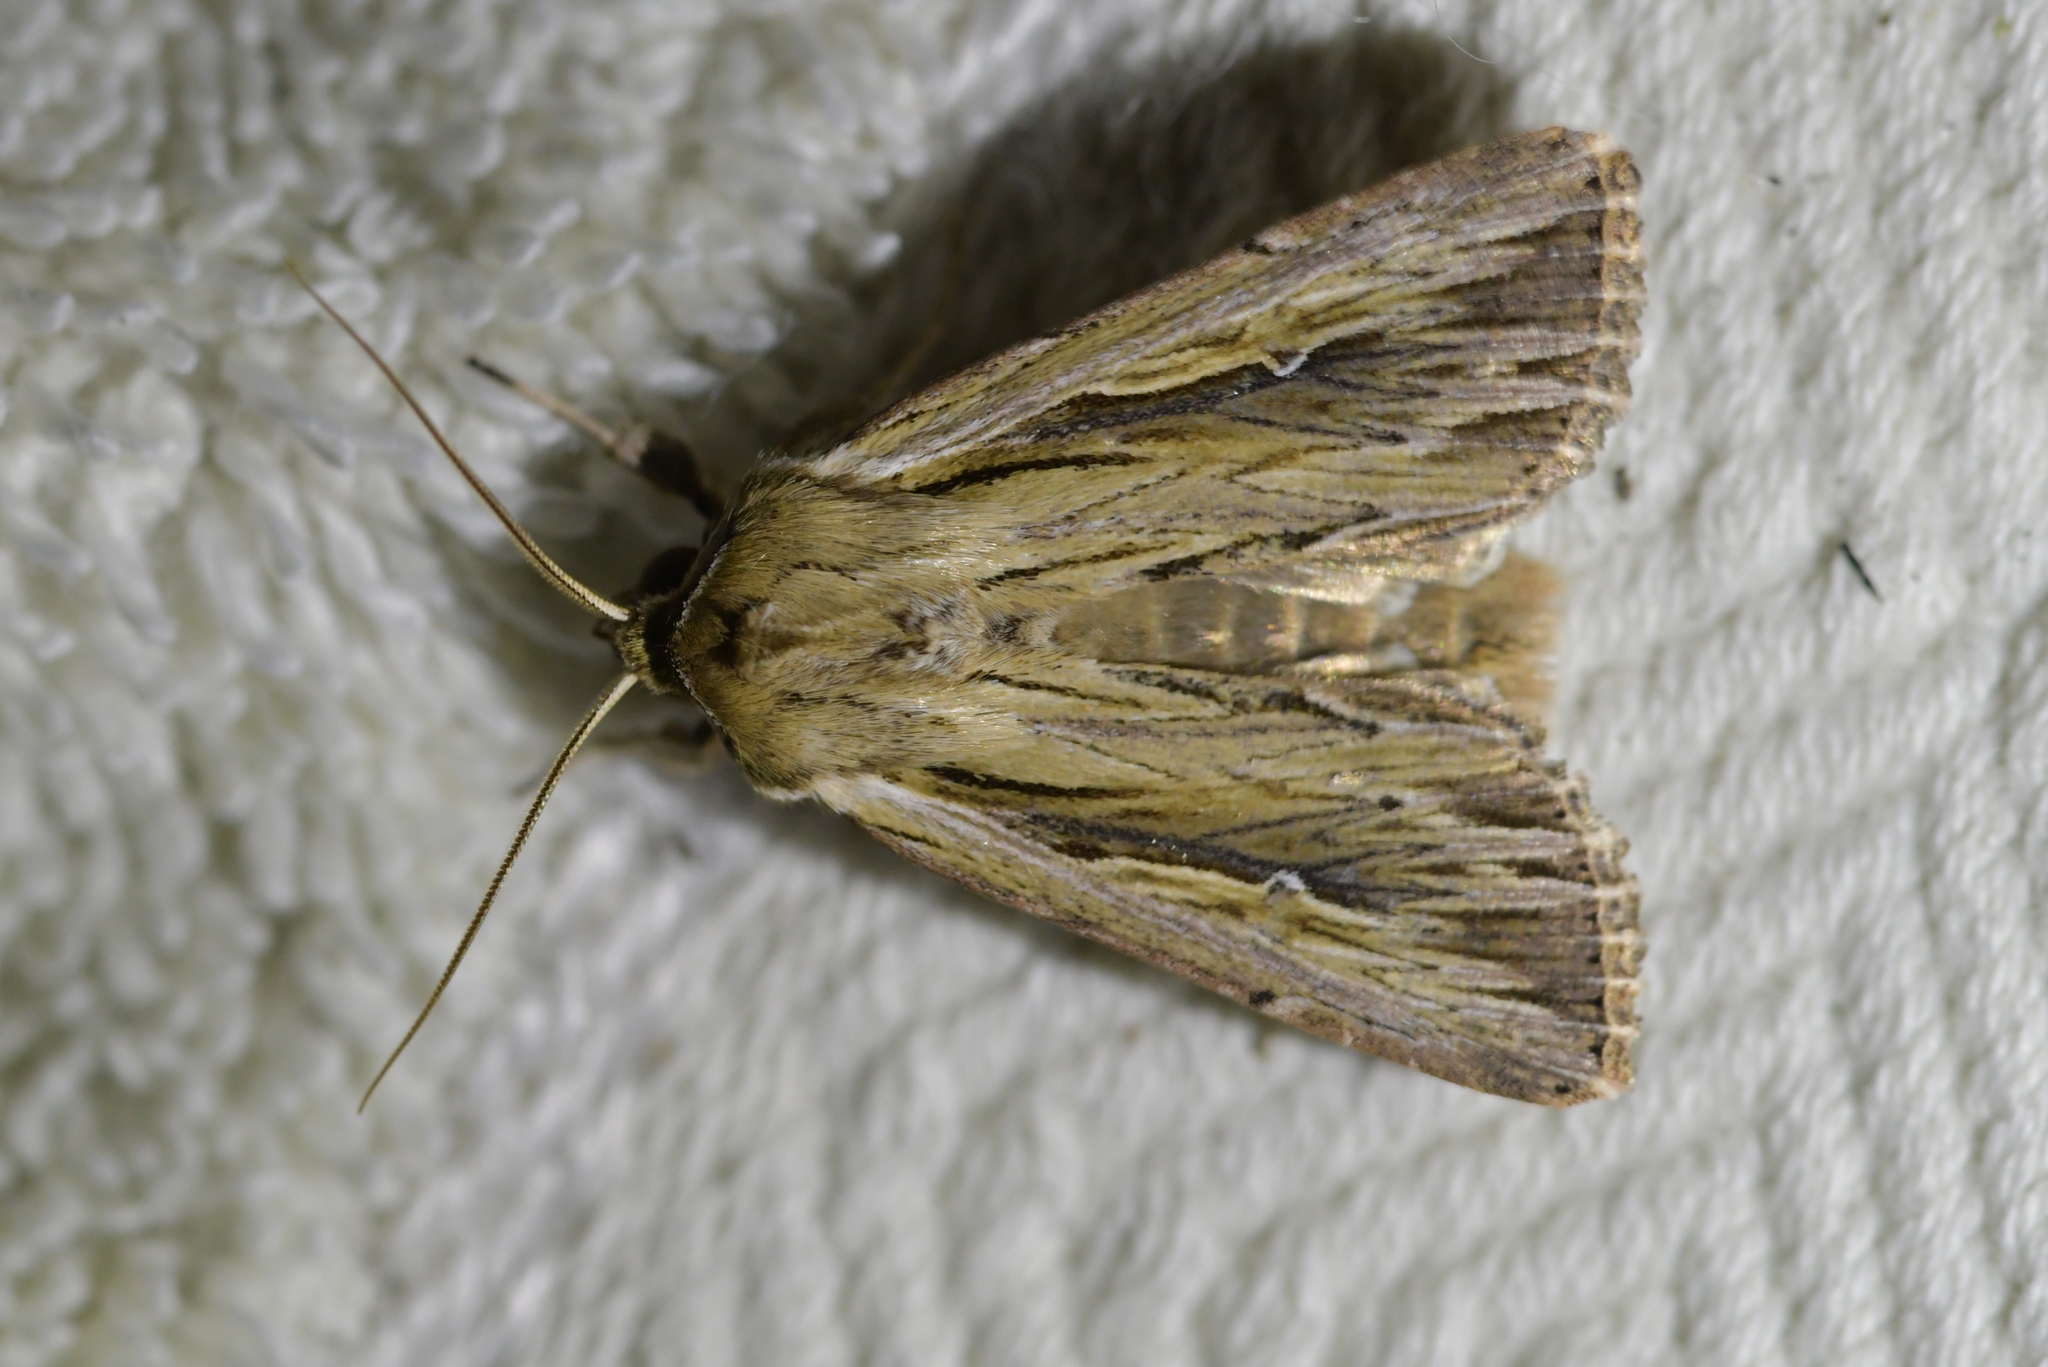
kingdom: Animalia
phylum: Arthropoda
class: Insecta
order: Lepidoptera
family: Noctuidae
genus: Persectania
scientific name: Persectania aversa
